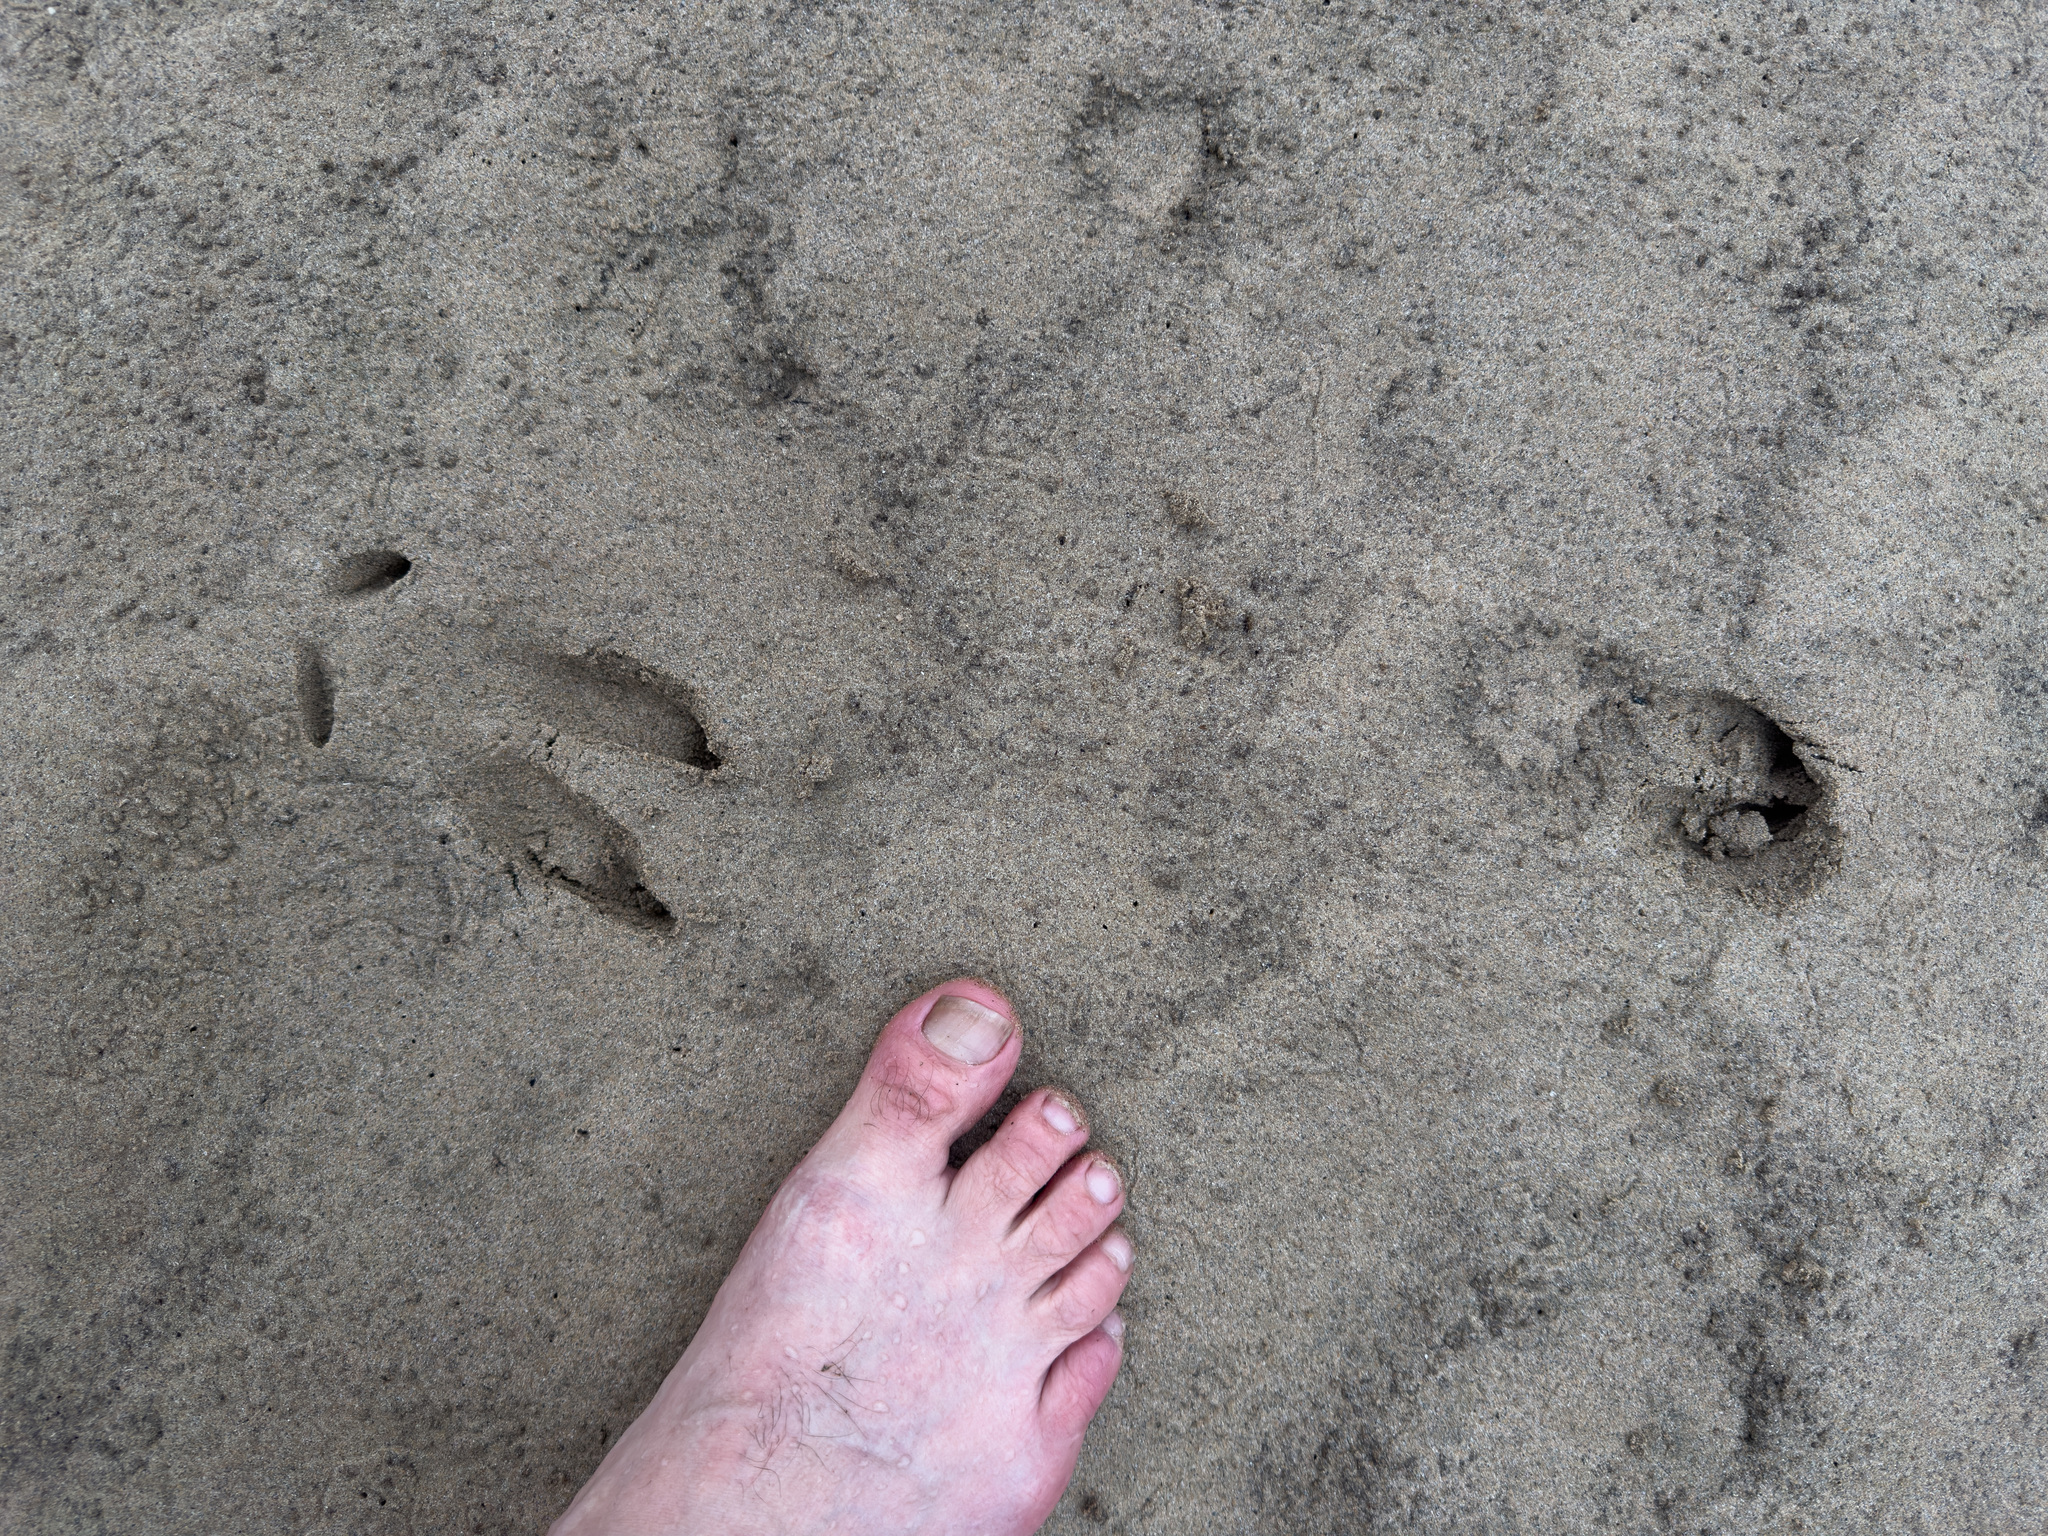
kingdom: Animalia
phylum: Chordata
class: Mammalia
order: Artiodactyla
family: Cervidae
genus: Odocoileus
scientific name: Odocoileus virginianus
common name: White-tailed deer
